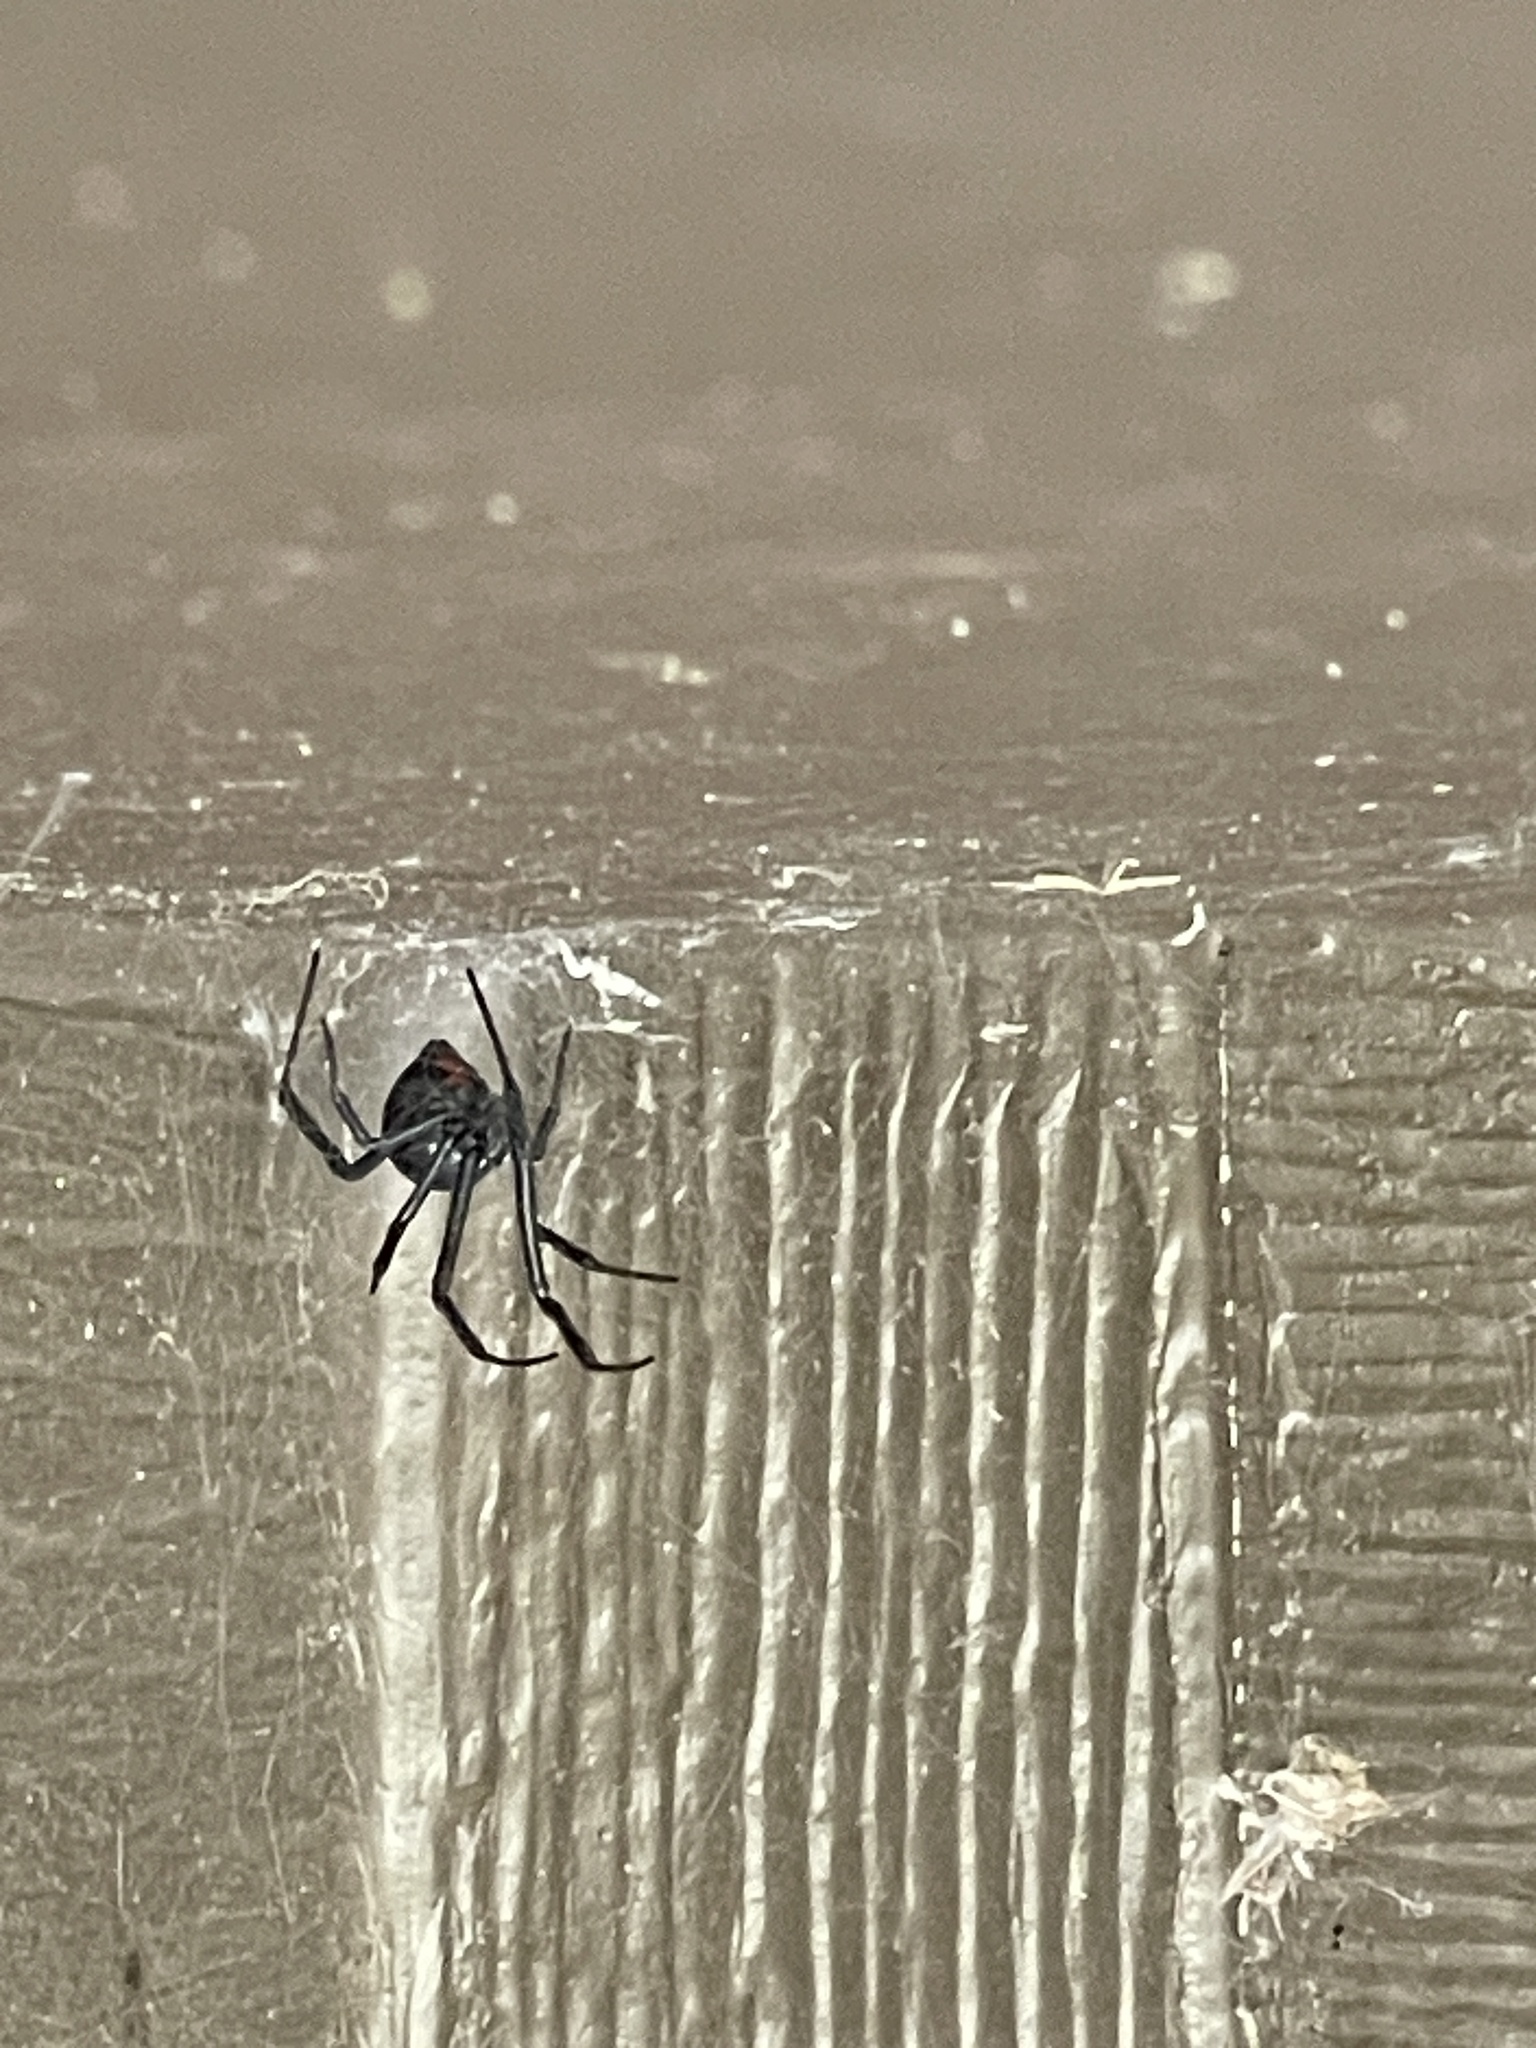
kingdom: Animalia
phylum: Arthropoda
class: Arachnida
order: Araneae
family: Theridiidae
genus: Latrodectus
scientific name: Latrodectus mactans
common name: Cobweb spiders
